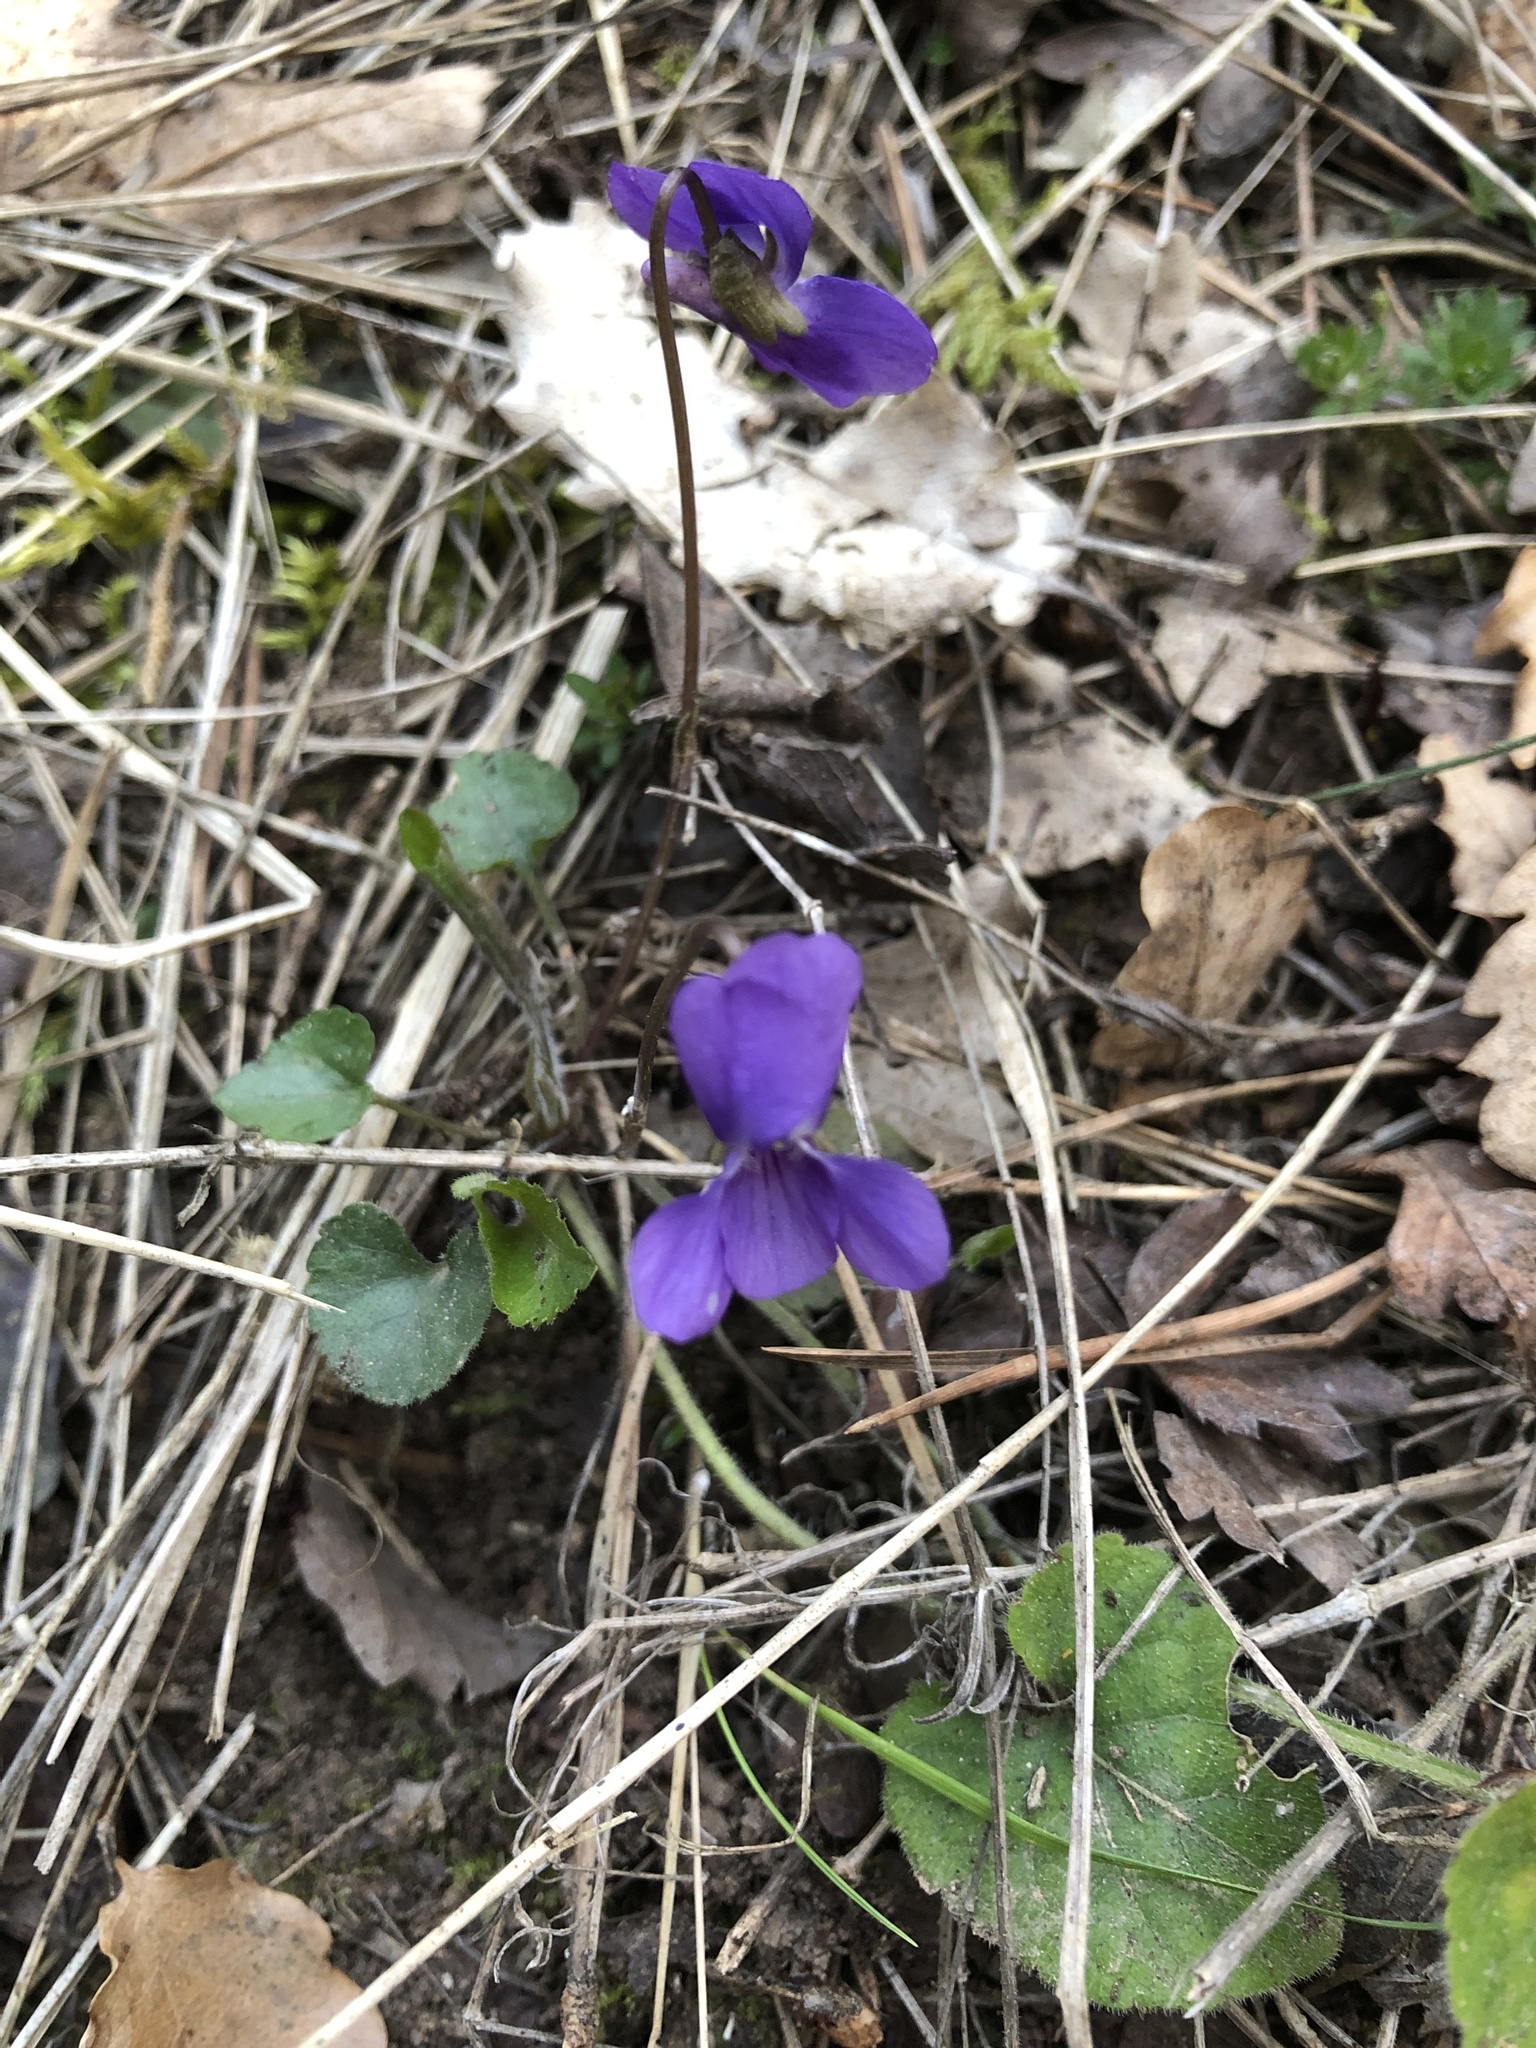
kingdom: Plantae
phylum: Tracheophyta
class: Magnoliopsida
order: Malpighiales
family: Violaceae
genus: Viola
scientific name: Viola alba
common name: White violet
